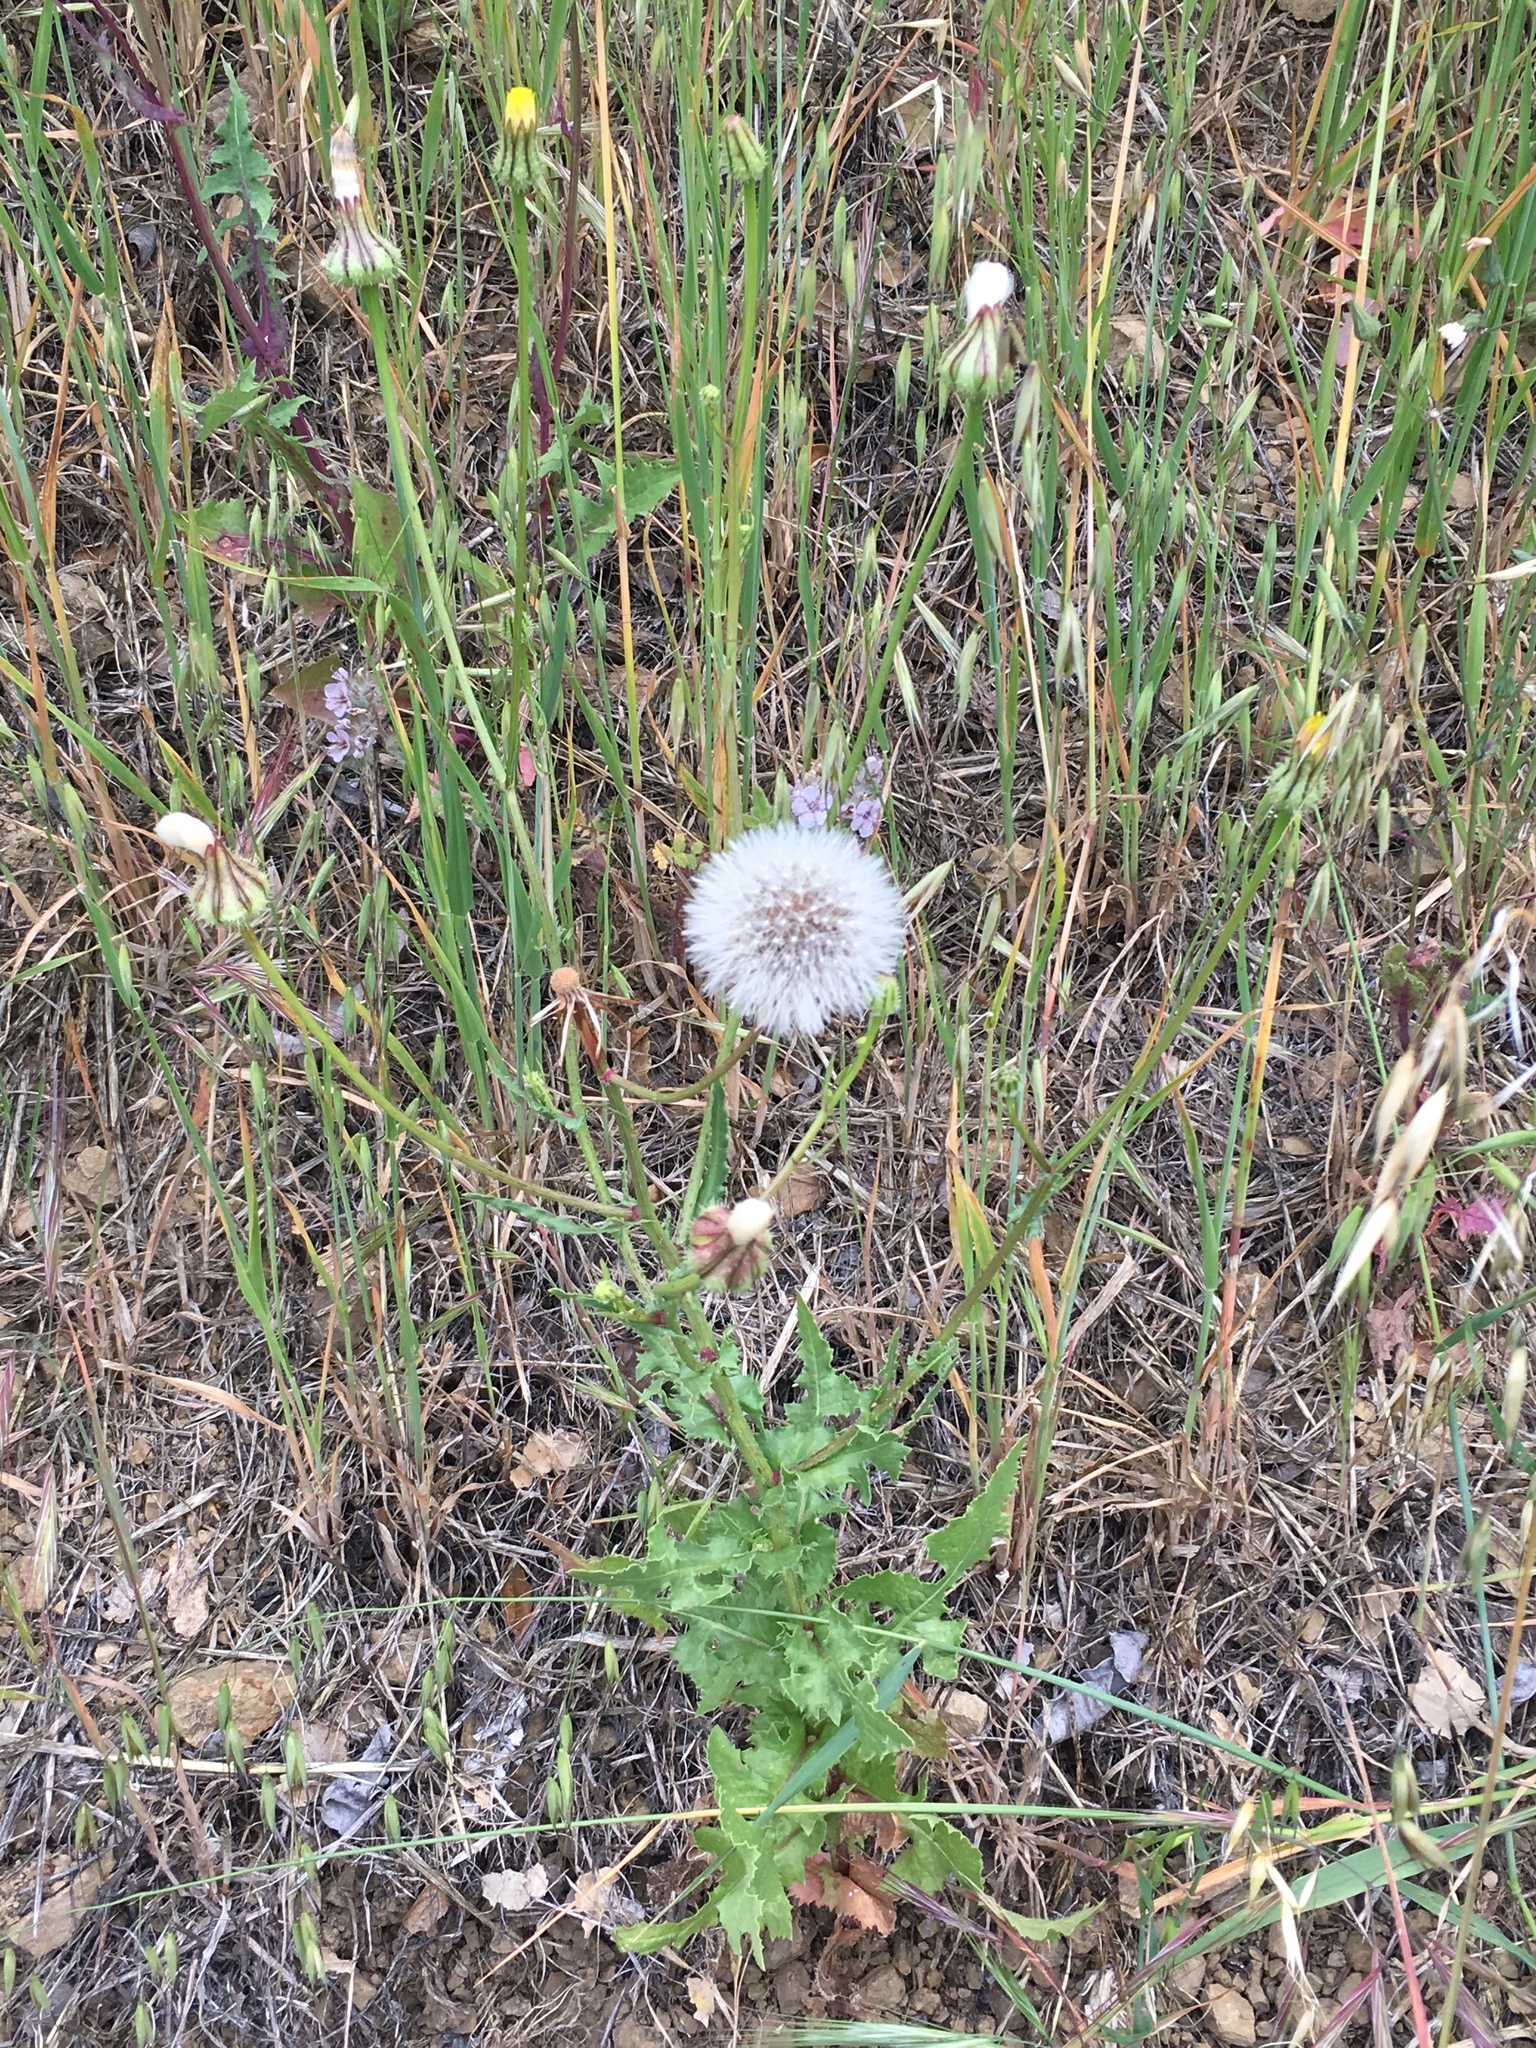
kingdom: Plantae
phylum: Tracheophyta
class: Magnoliopsida
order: Asterales
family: Asteraceae
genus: Urospermum
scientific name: Urospermum picroides
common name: False hawkbit
